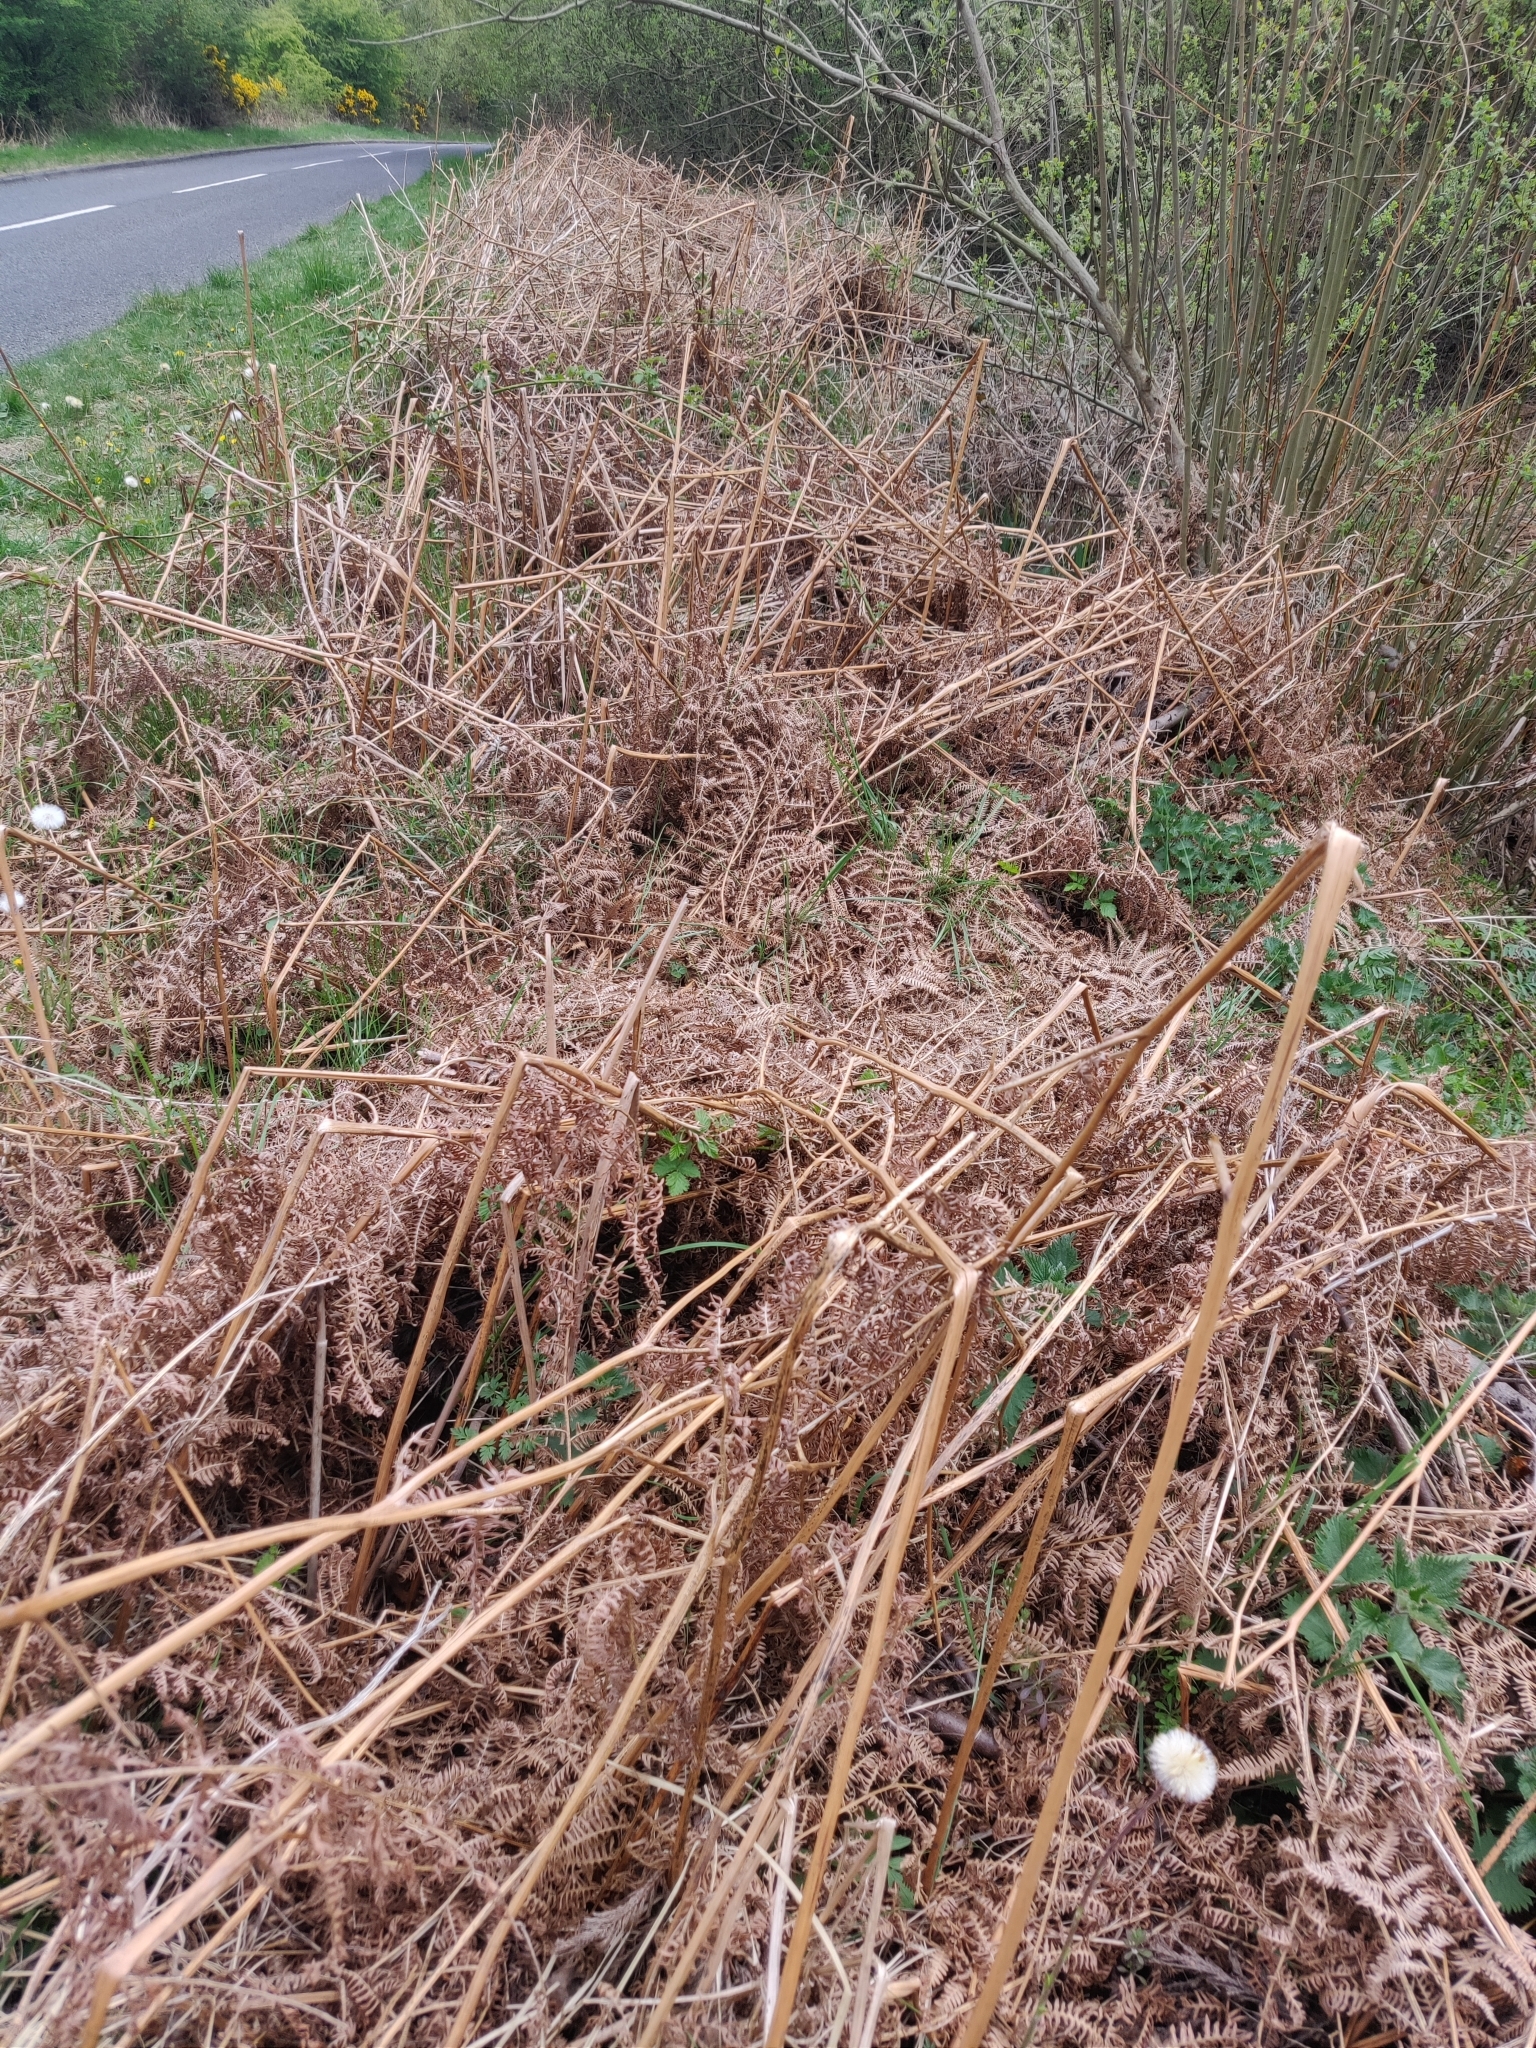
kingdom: Plantae
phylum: Tracheophyta
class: Polypodiopsida
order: Polypodiales
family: Dennstaedtiaceae
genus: Pteridium
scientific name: Pteridium aquilinum
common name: Bracken
